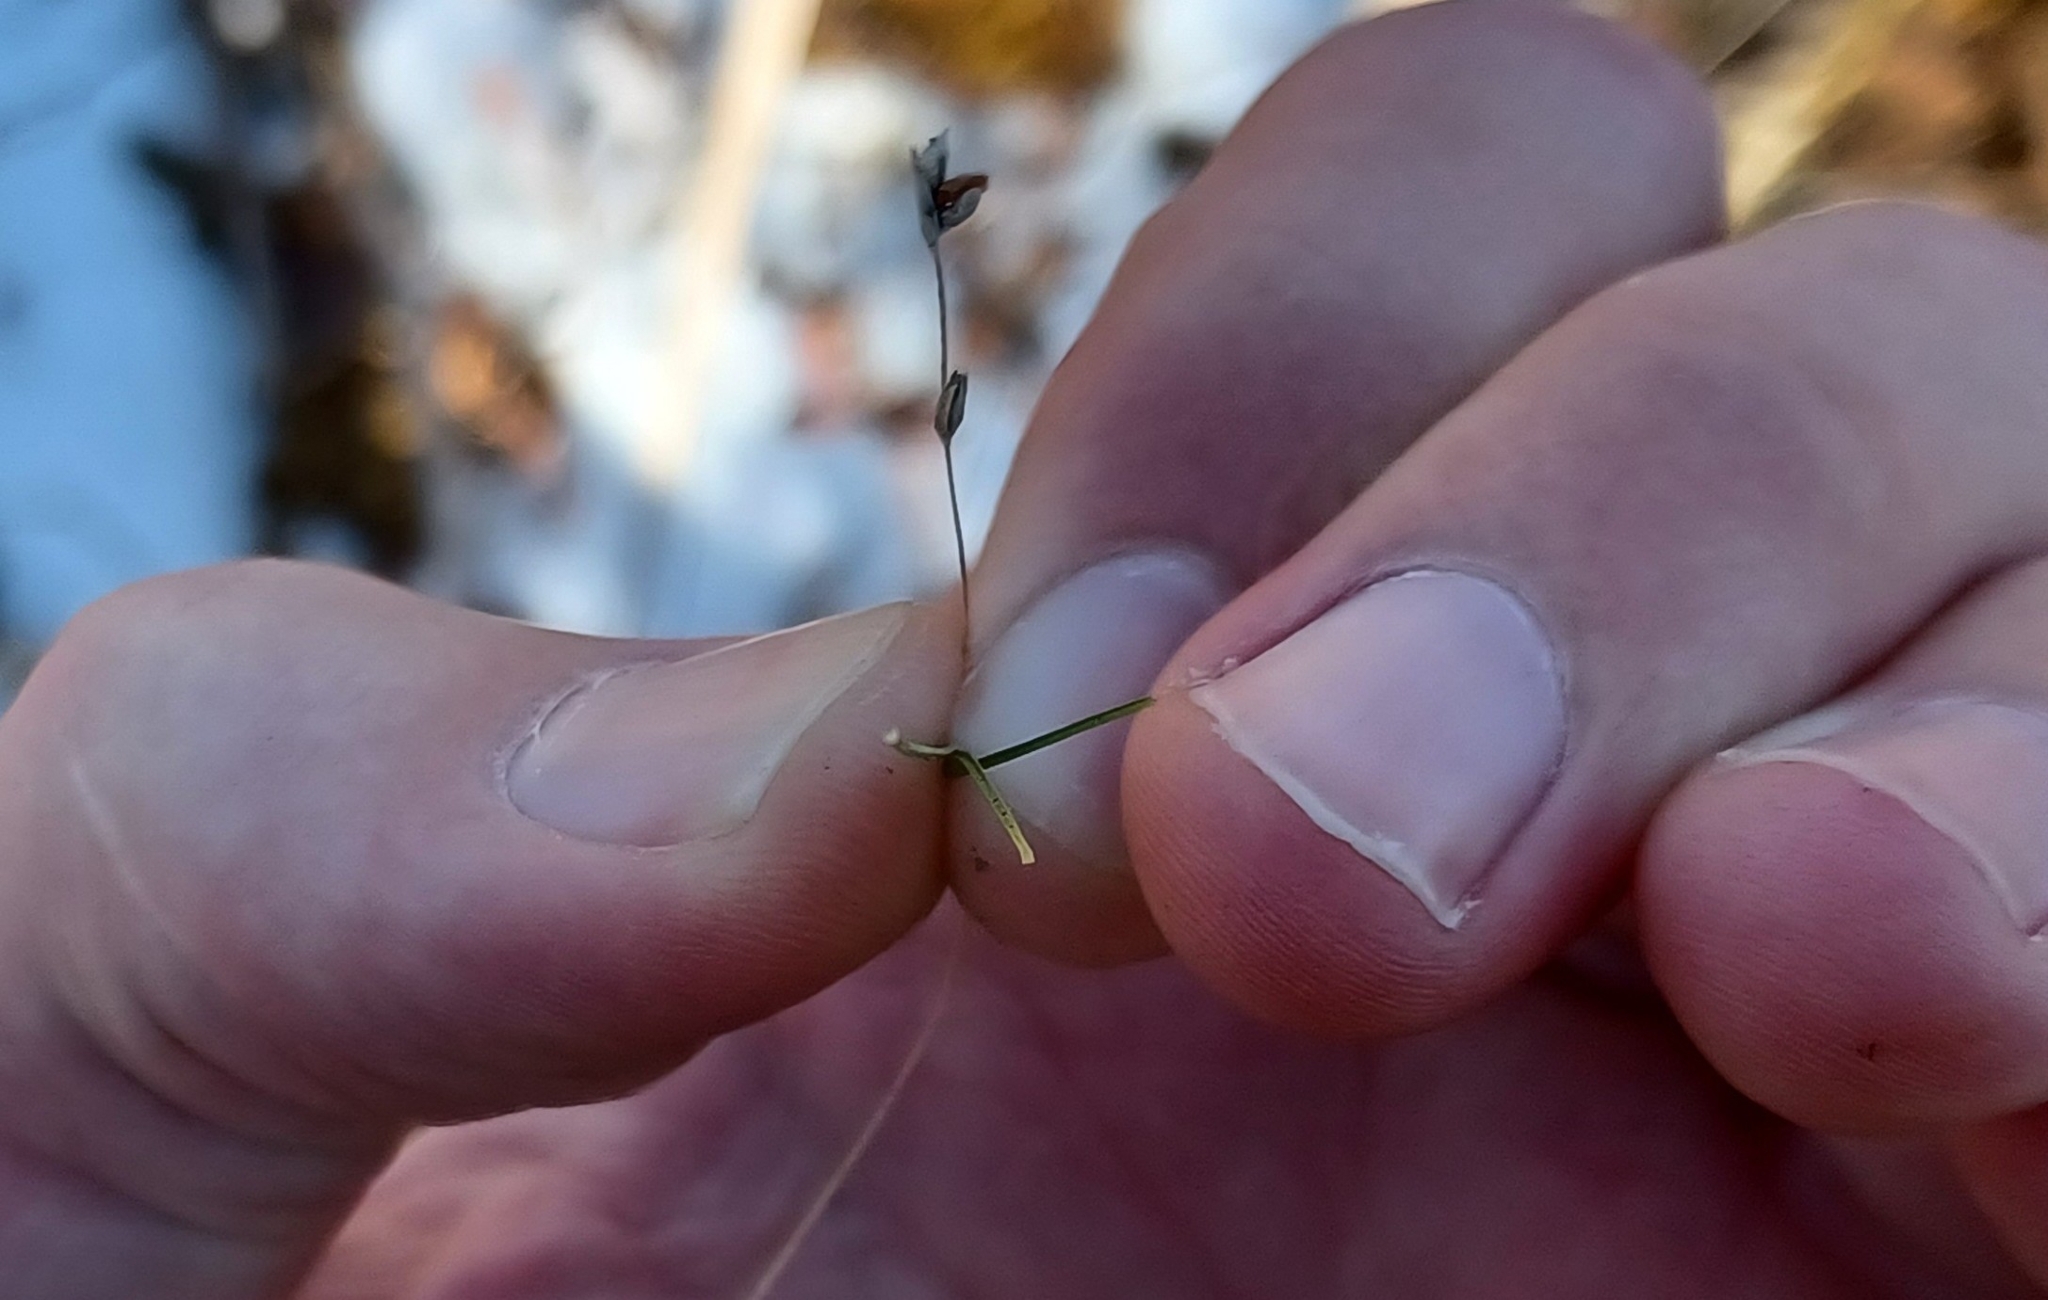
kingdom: Plantae
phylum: Tracheophyta
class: Liliopsida
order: Poales
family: Cyperaceae
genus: Carex
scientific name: Carex trisperma
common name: Three-seeded sedge
